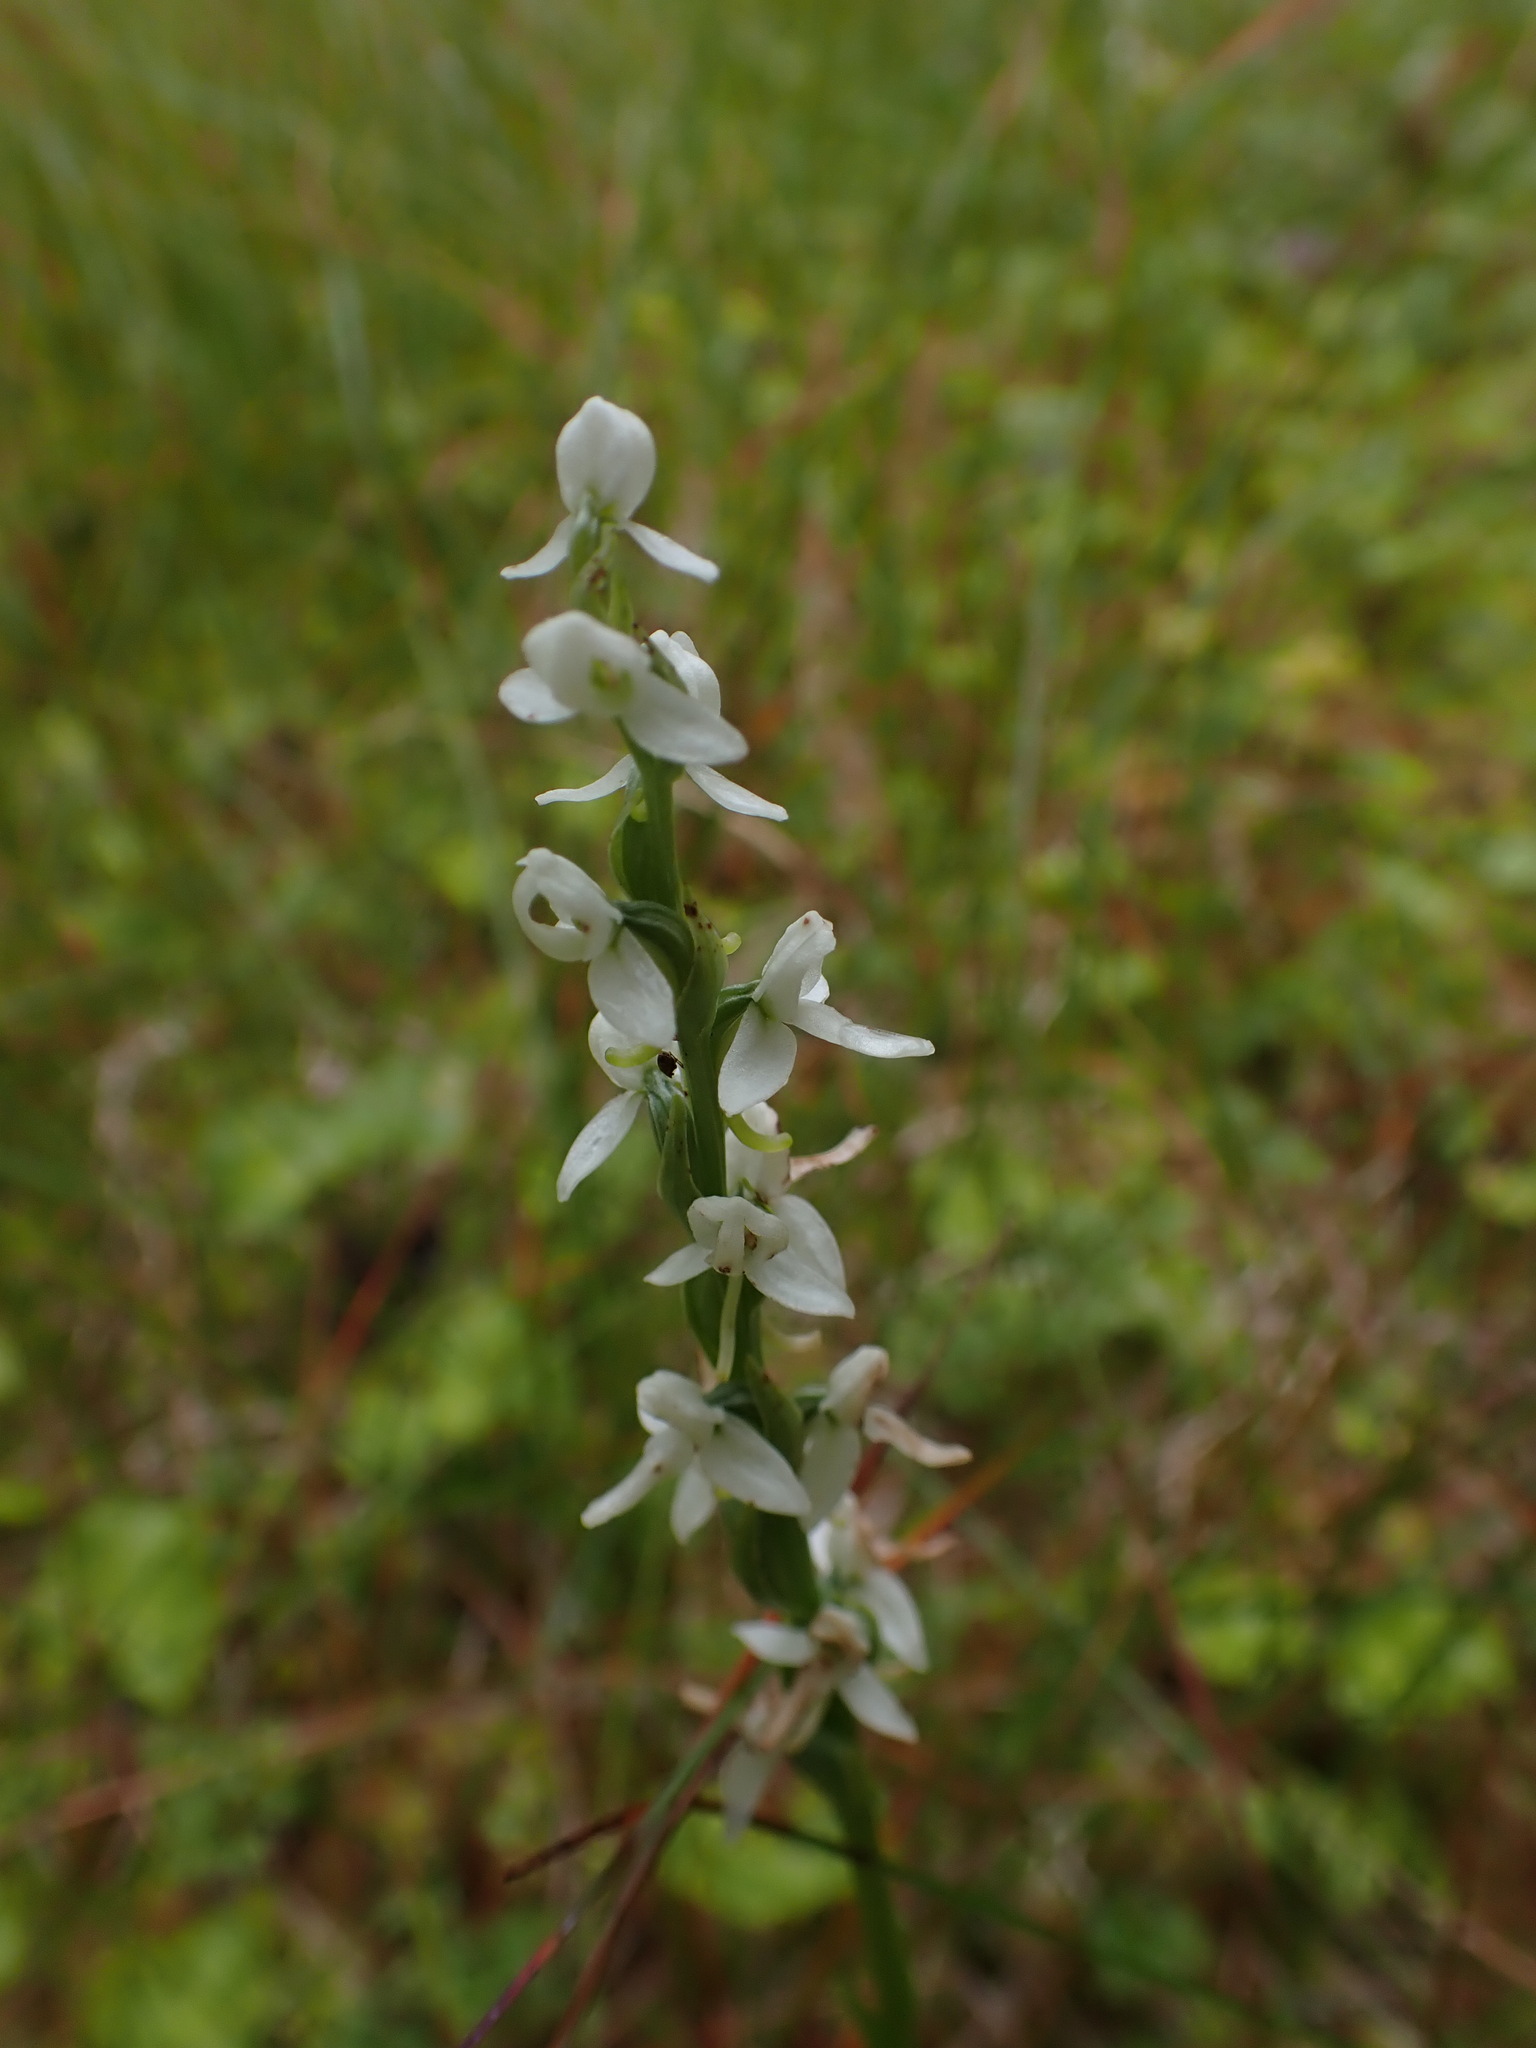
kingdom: Plantae
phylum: Tracheophyta
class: Liliopsida
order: Asparagales
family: Orchidaceae
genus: Platanthera
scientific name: Platanthera dilatata
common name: Bog candles
